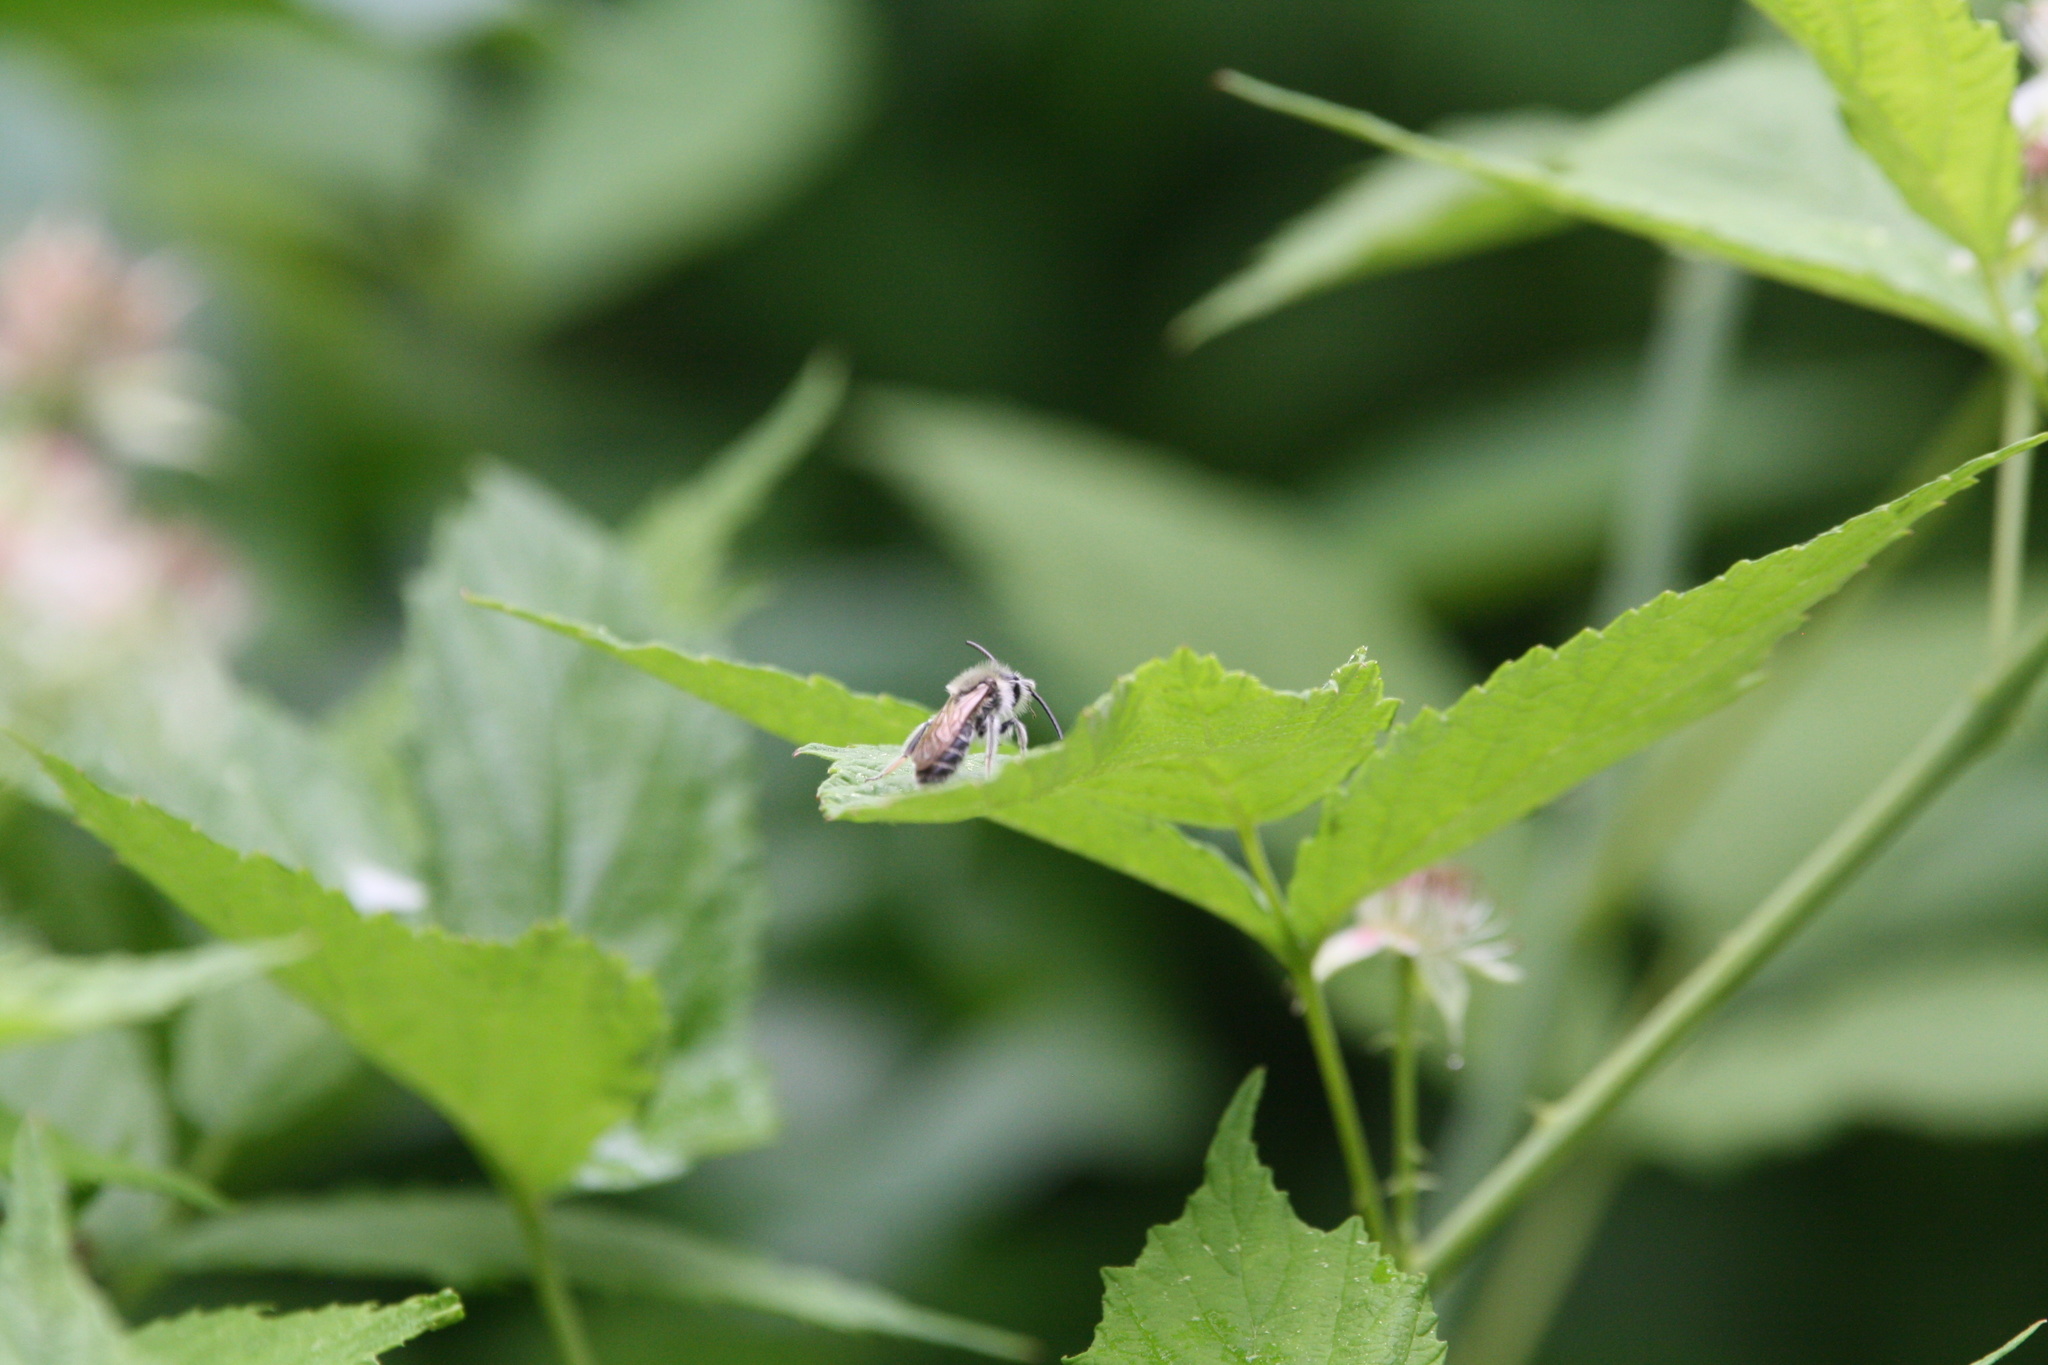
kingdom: Animalia
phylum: Arthropoda
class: Insecta
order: Hymenoptera
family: Andrenidae
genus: Andrena
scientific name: Andrena wilkella
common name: Wilke's mining bee
